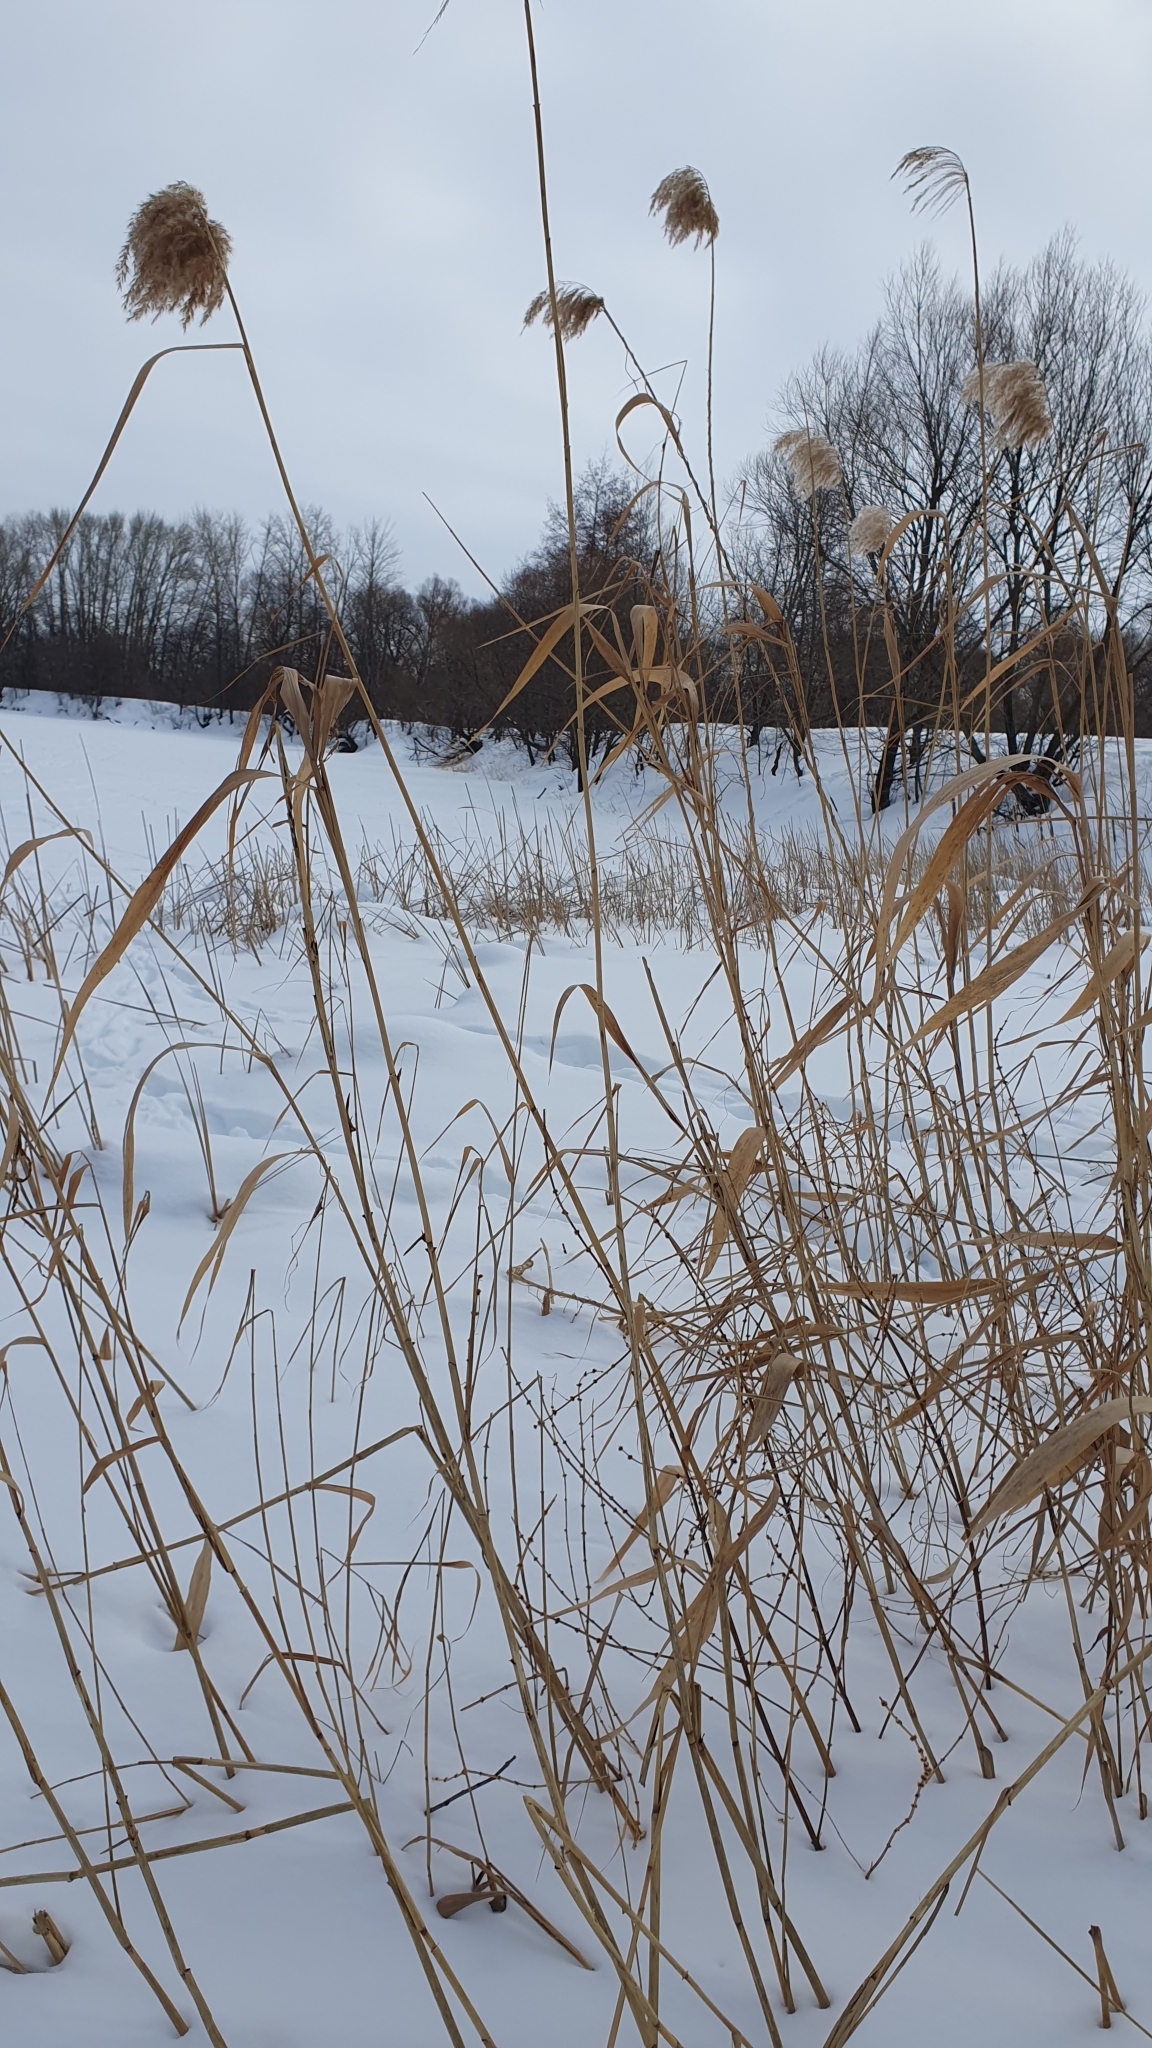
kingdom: Plantae
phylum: Tracheophyta
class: Liliopsida
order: Poales
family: Poaceae
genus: Phragmites
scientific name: Phragmites australis
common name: Common reed
